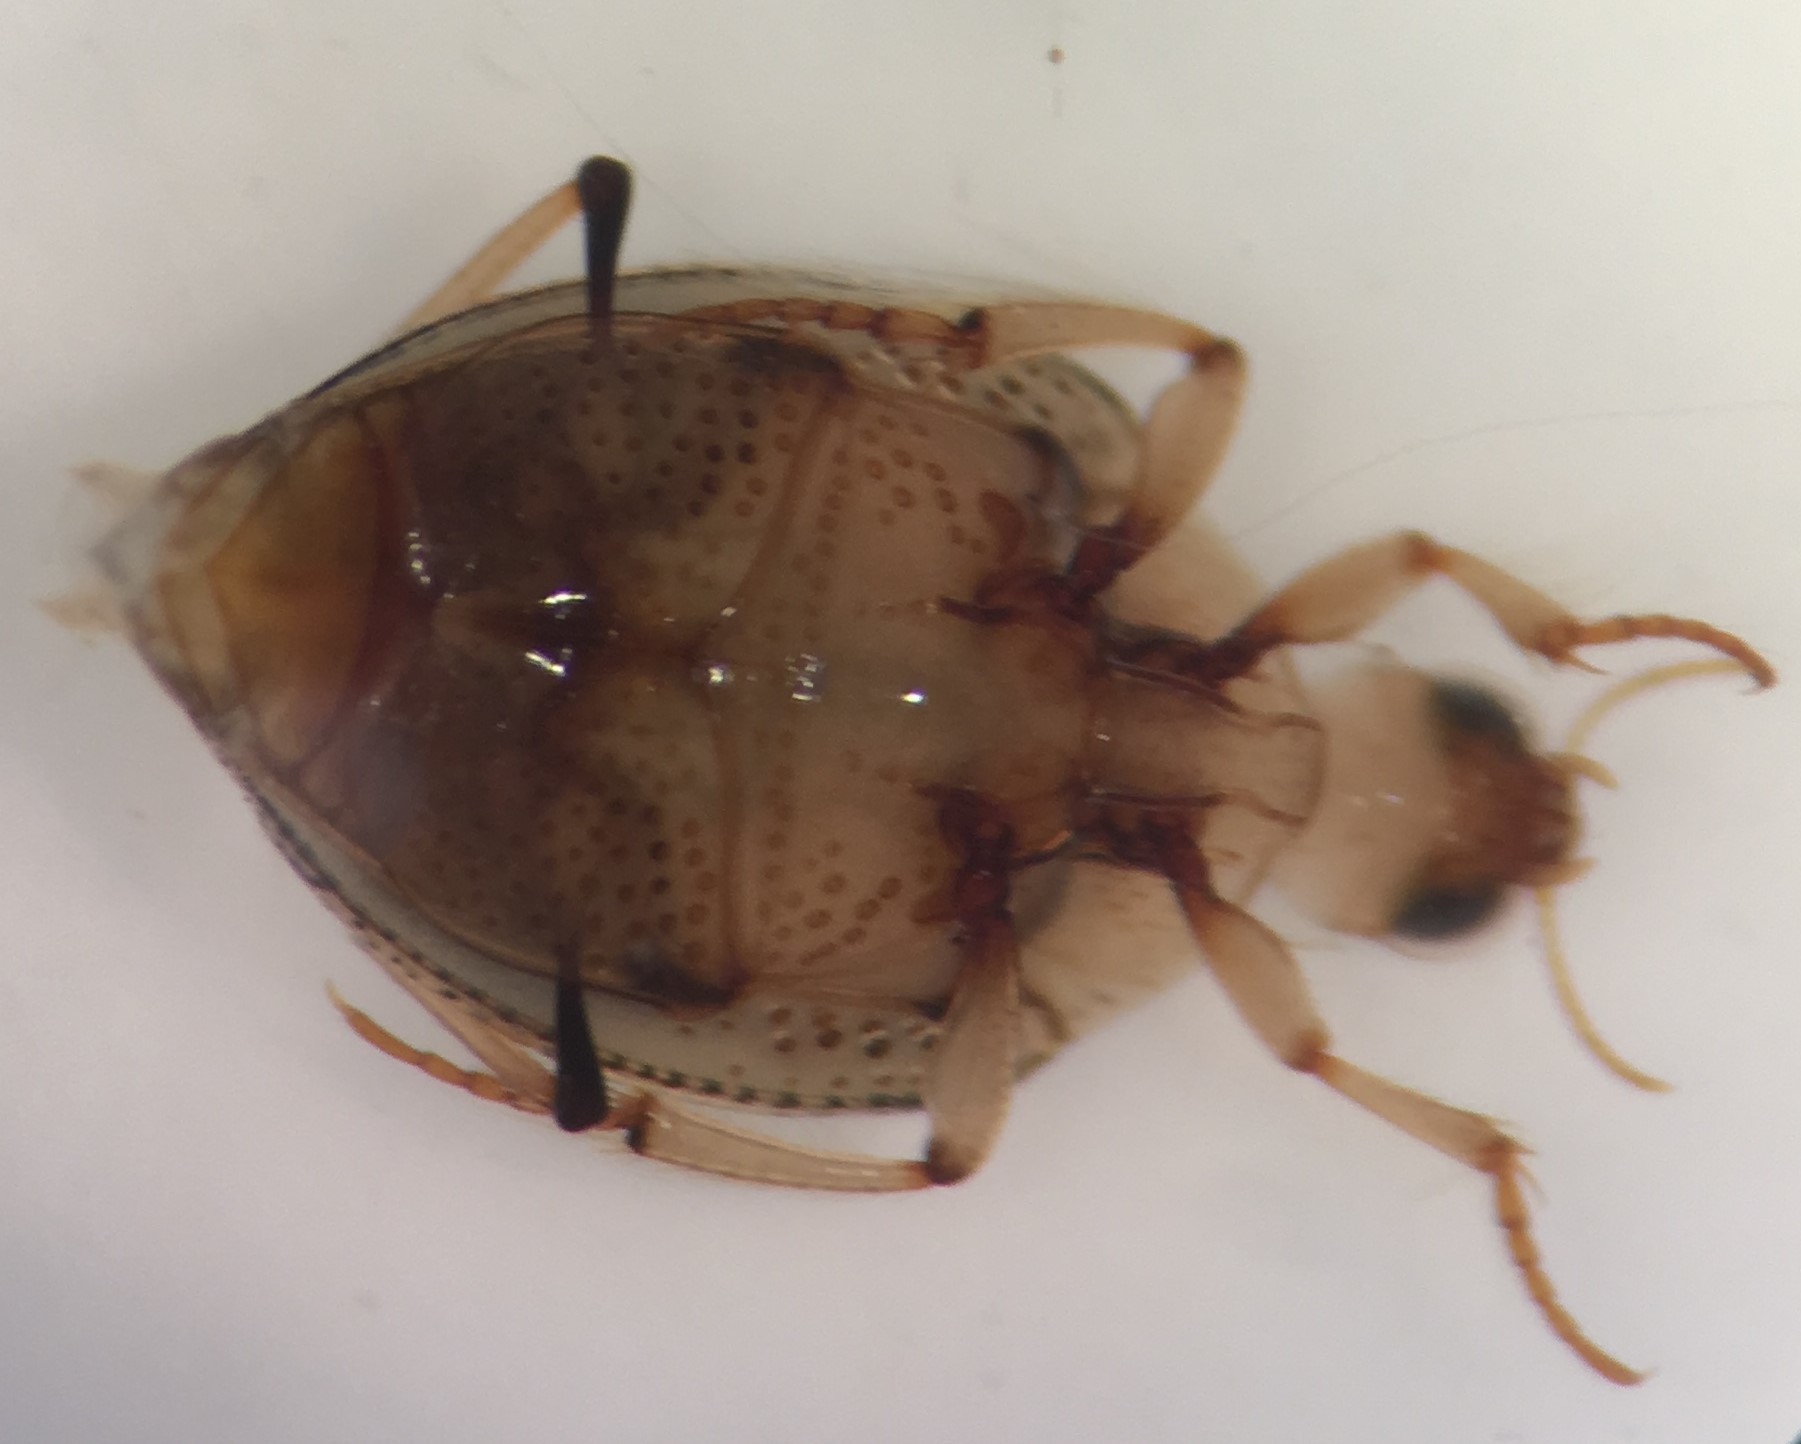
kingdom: Animalia
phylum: Arthropoda
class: Insecta
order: Coleoptera
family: Haliplidae
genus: Peltodytes
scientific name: Peltodytes muticus
